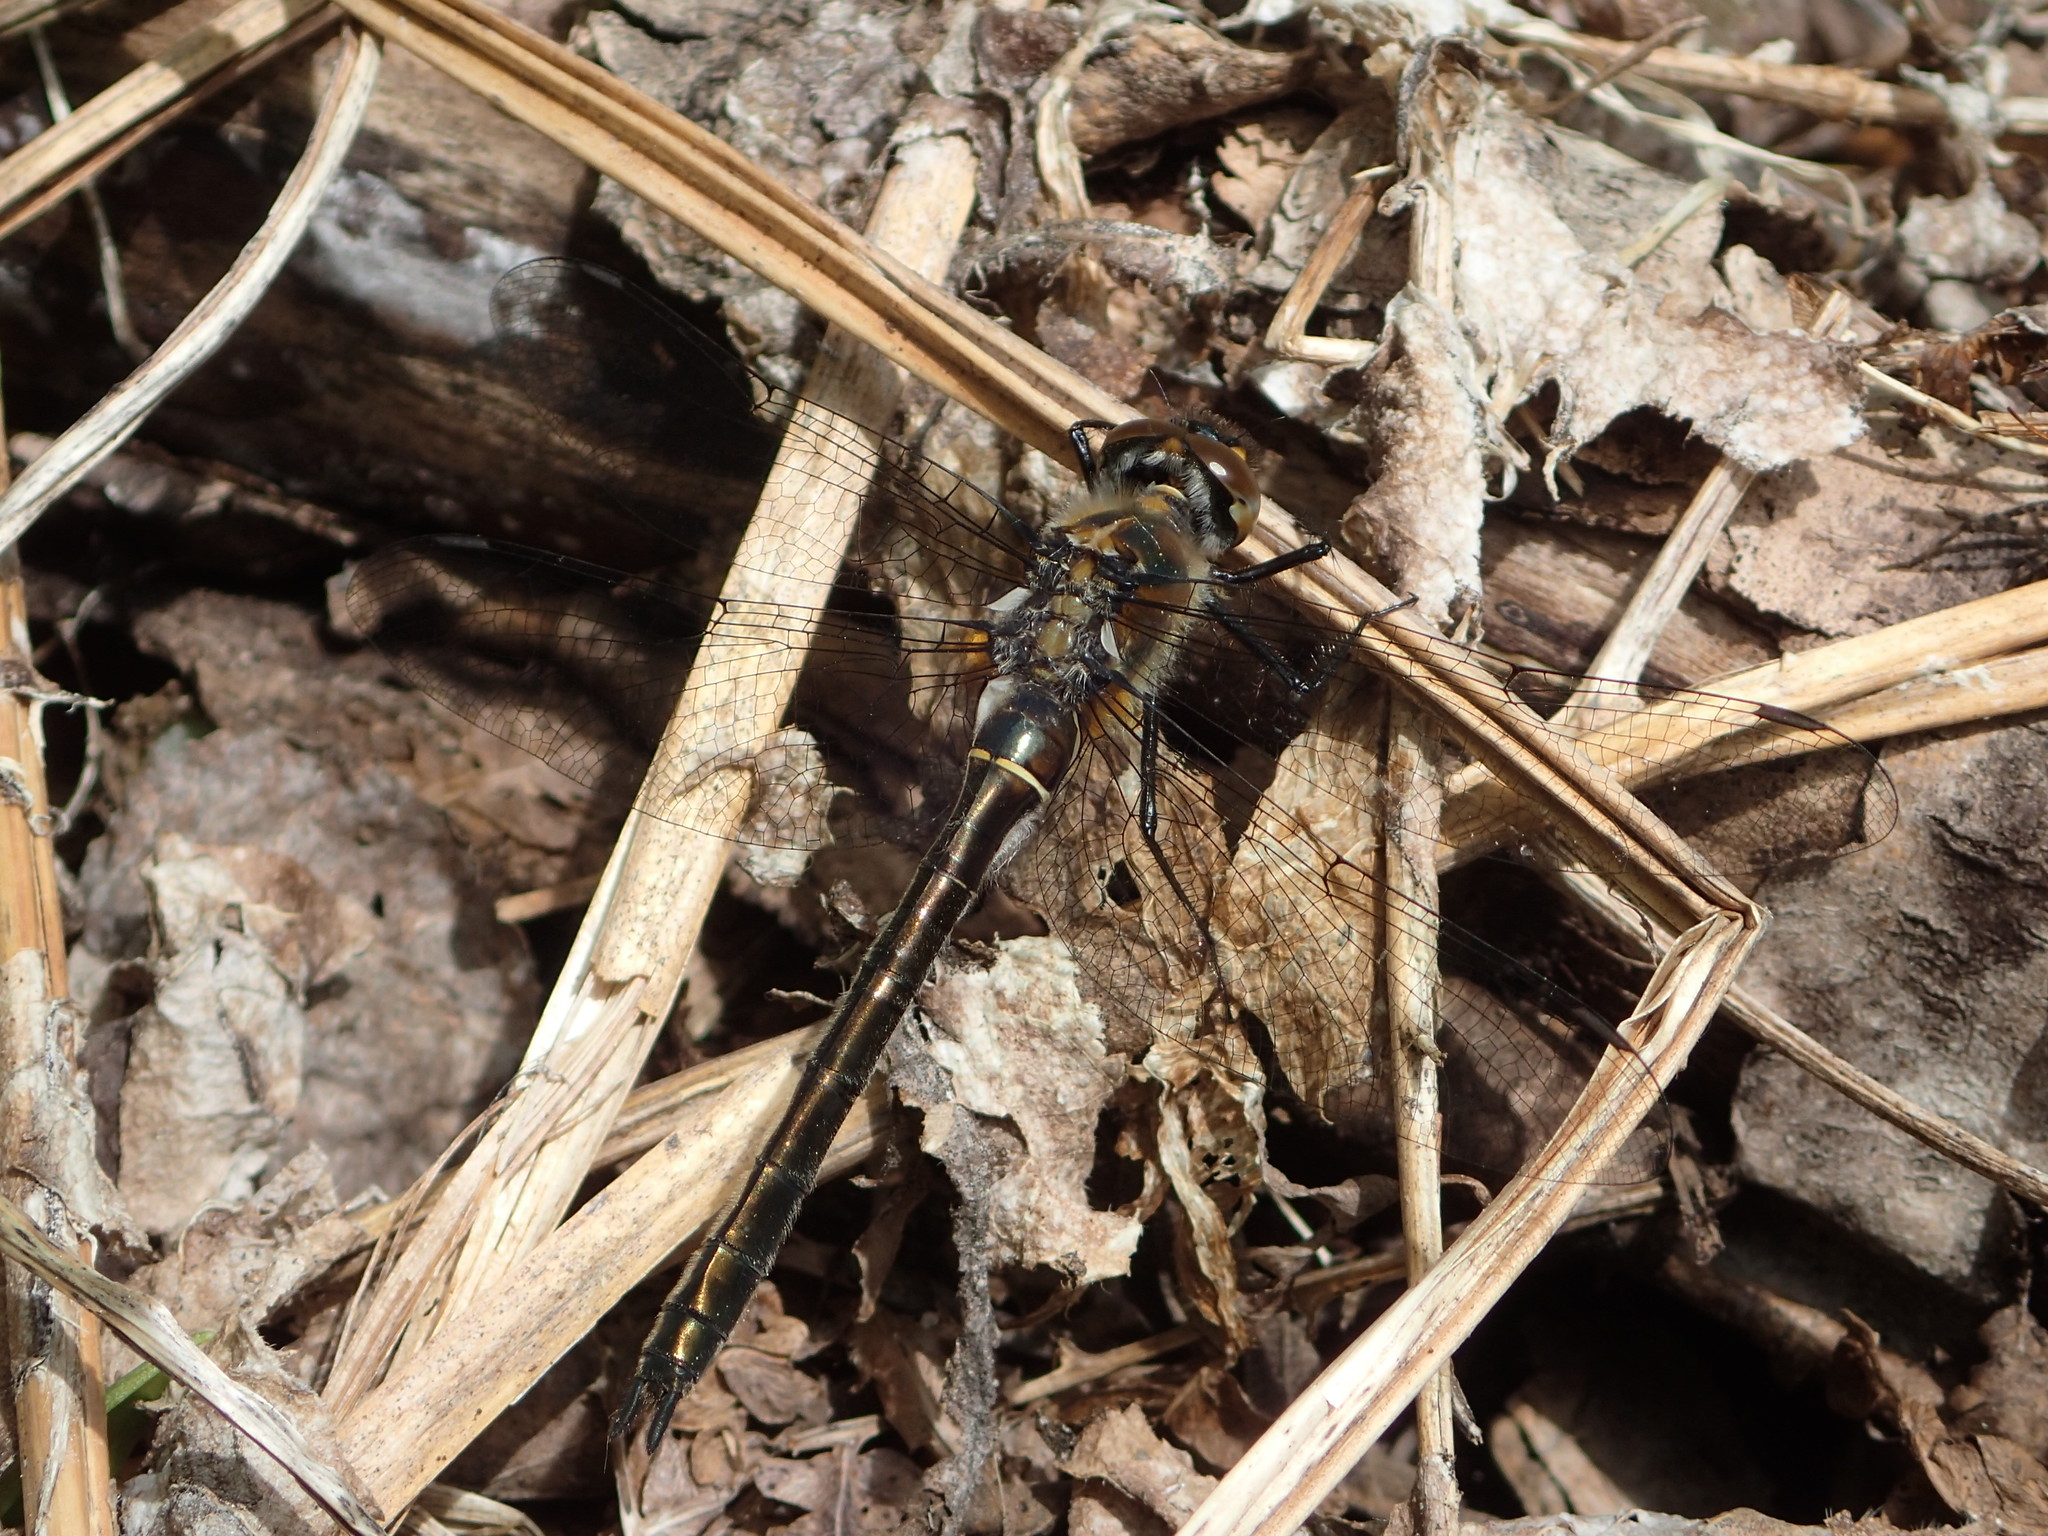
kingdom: Animalia
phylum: Arthropoda
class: Insecta
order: Odonata
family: Corduliidae
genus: Cordulia
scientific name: Cordulia shurtleffii
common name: American emerald
